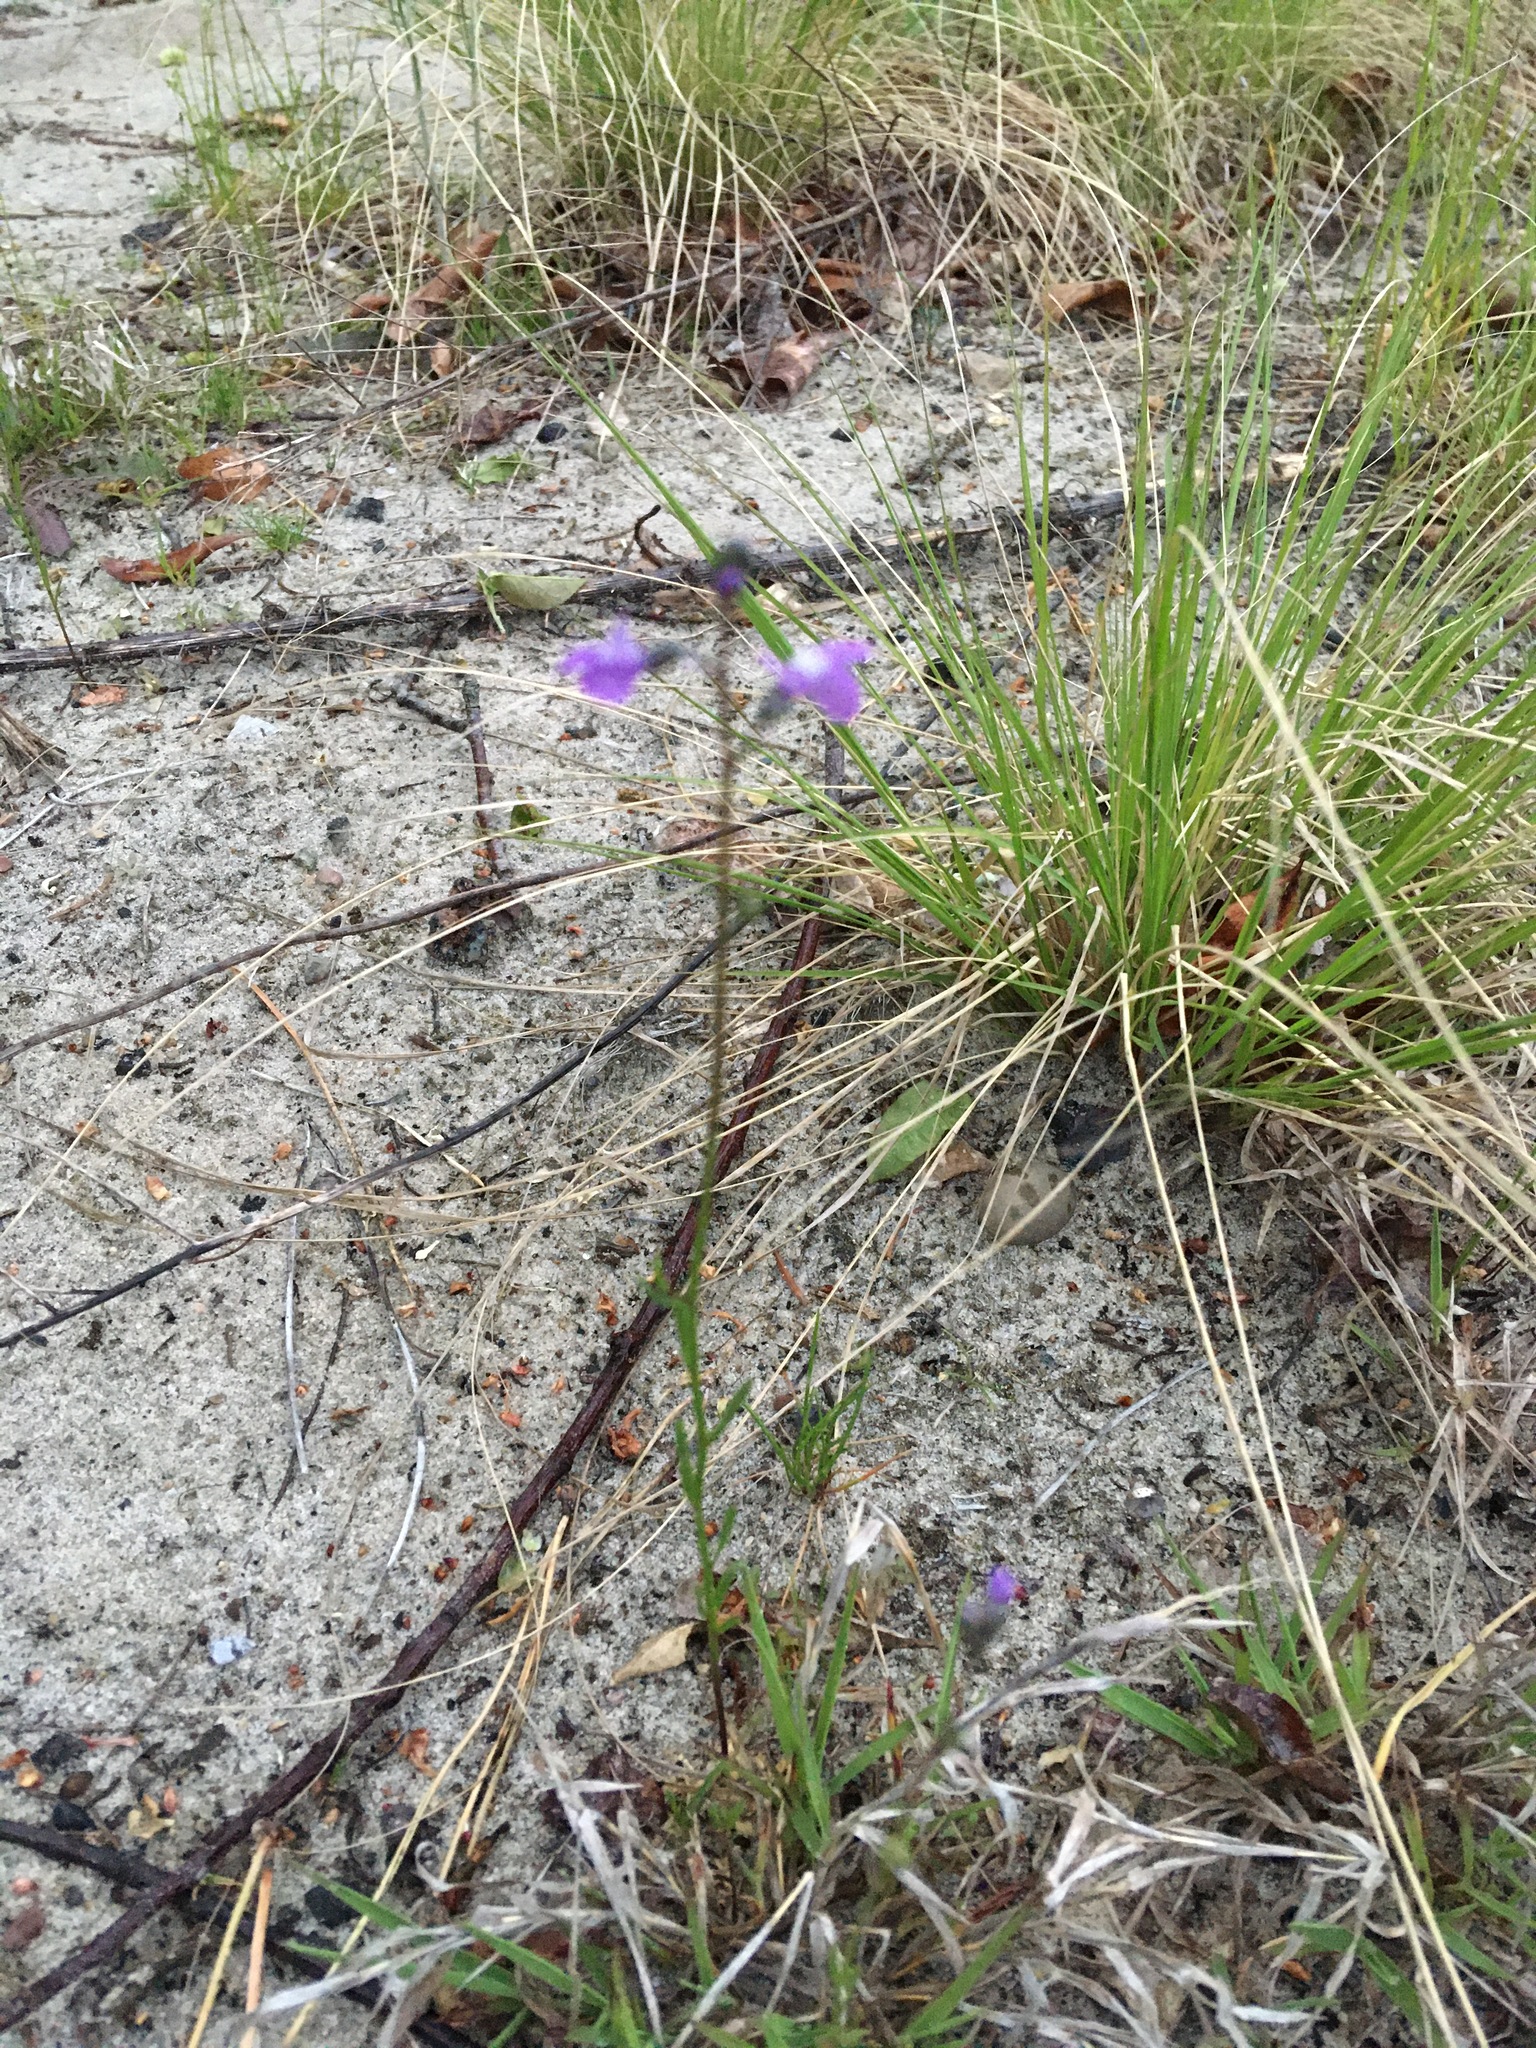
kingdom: Plantae
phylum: Tracheophyta
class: Magnoliopsida
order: Lamiales
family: Plantaginaceae
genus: Nuttallanthus
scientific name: Nuttallanthus canadensis
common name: Blue toadflax
